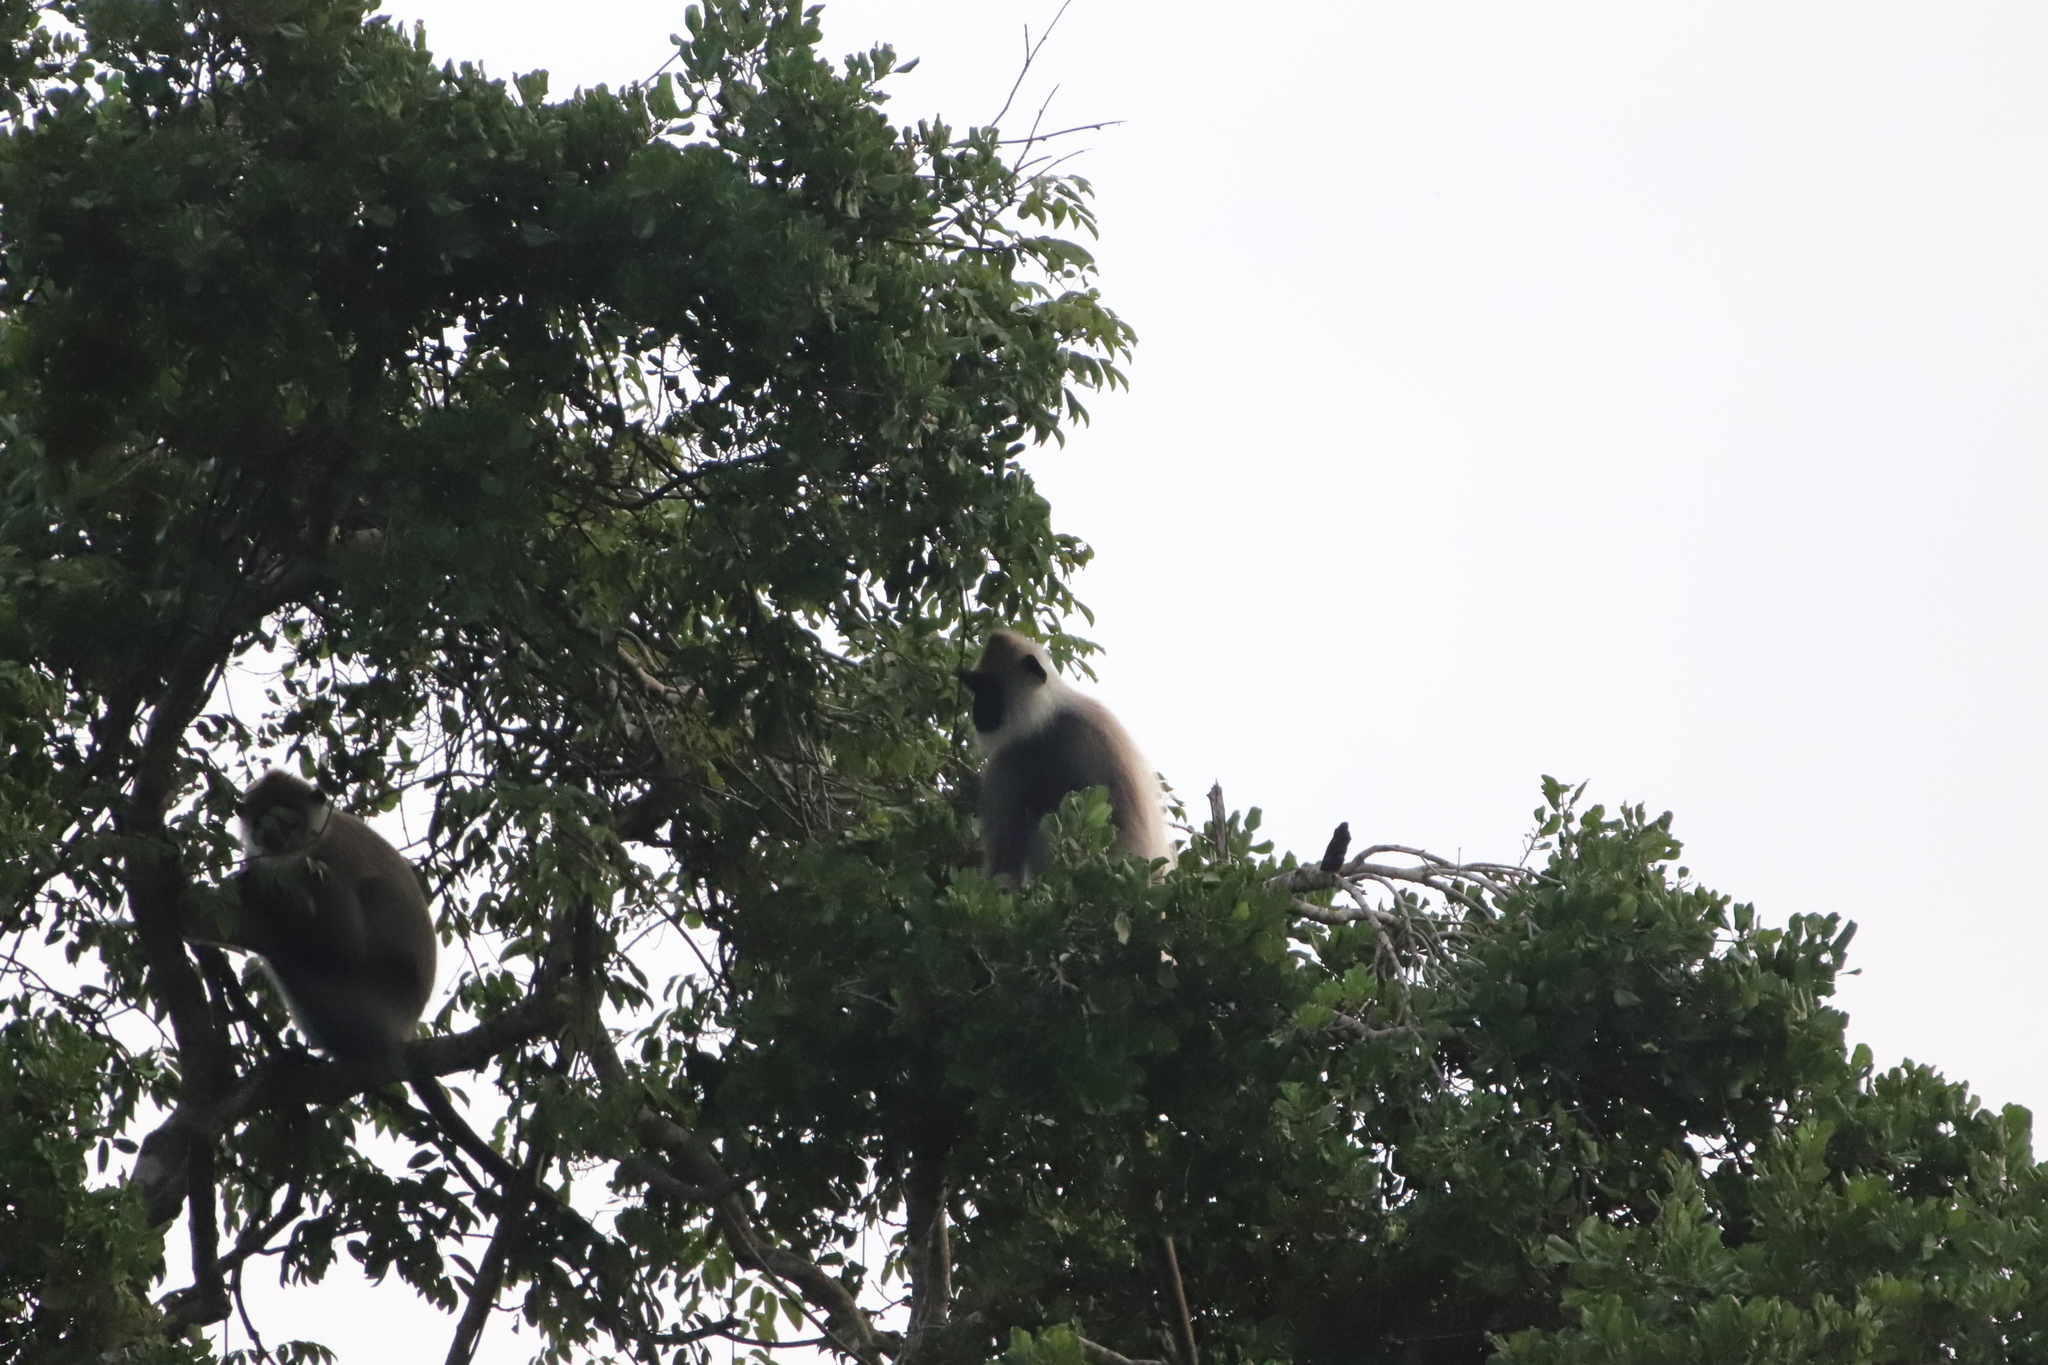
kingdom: Animalia
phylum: Chordata
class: Mammalia
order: Primates
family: Cercopithecidae
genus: Semnopithecus
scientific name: Semnopithecus priam
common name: Tufted gray langur
